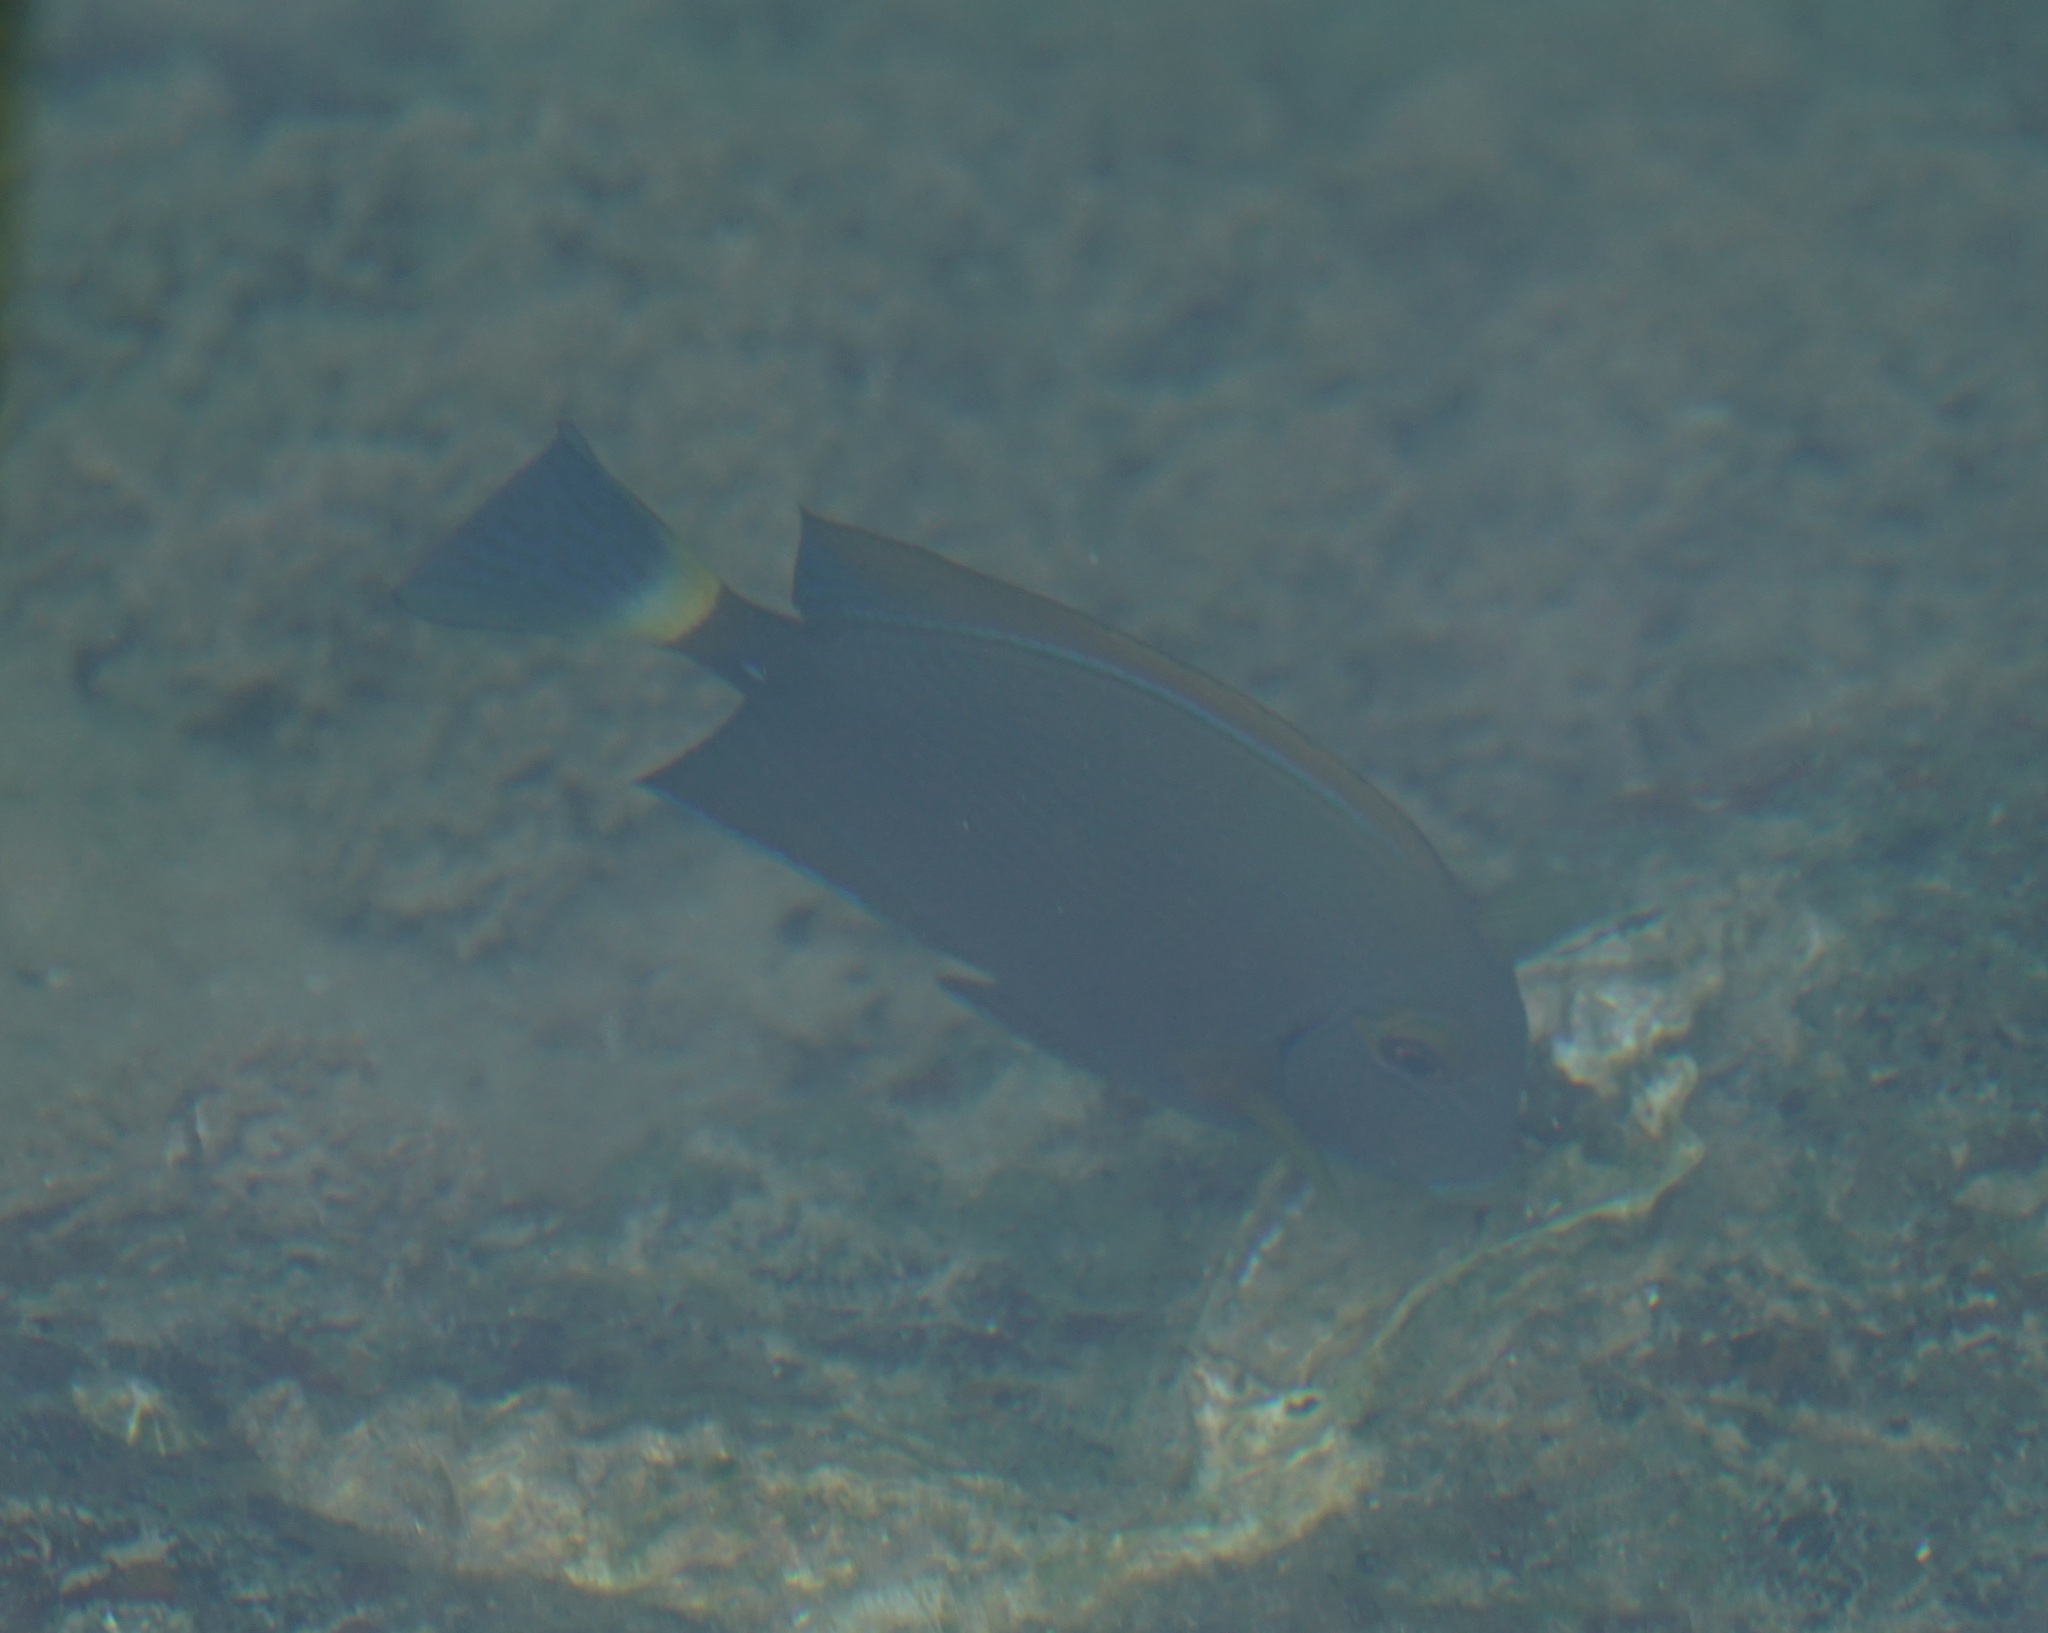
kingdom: Animalia
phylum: Chordata
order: Perciformes
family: Acanthuridae
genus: Acanthurus
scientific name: Acanthurus dussumieri
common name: Dussumier's surgeonfish
